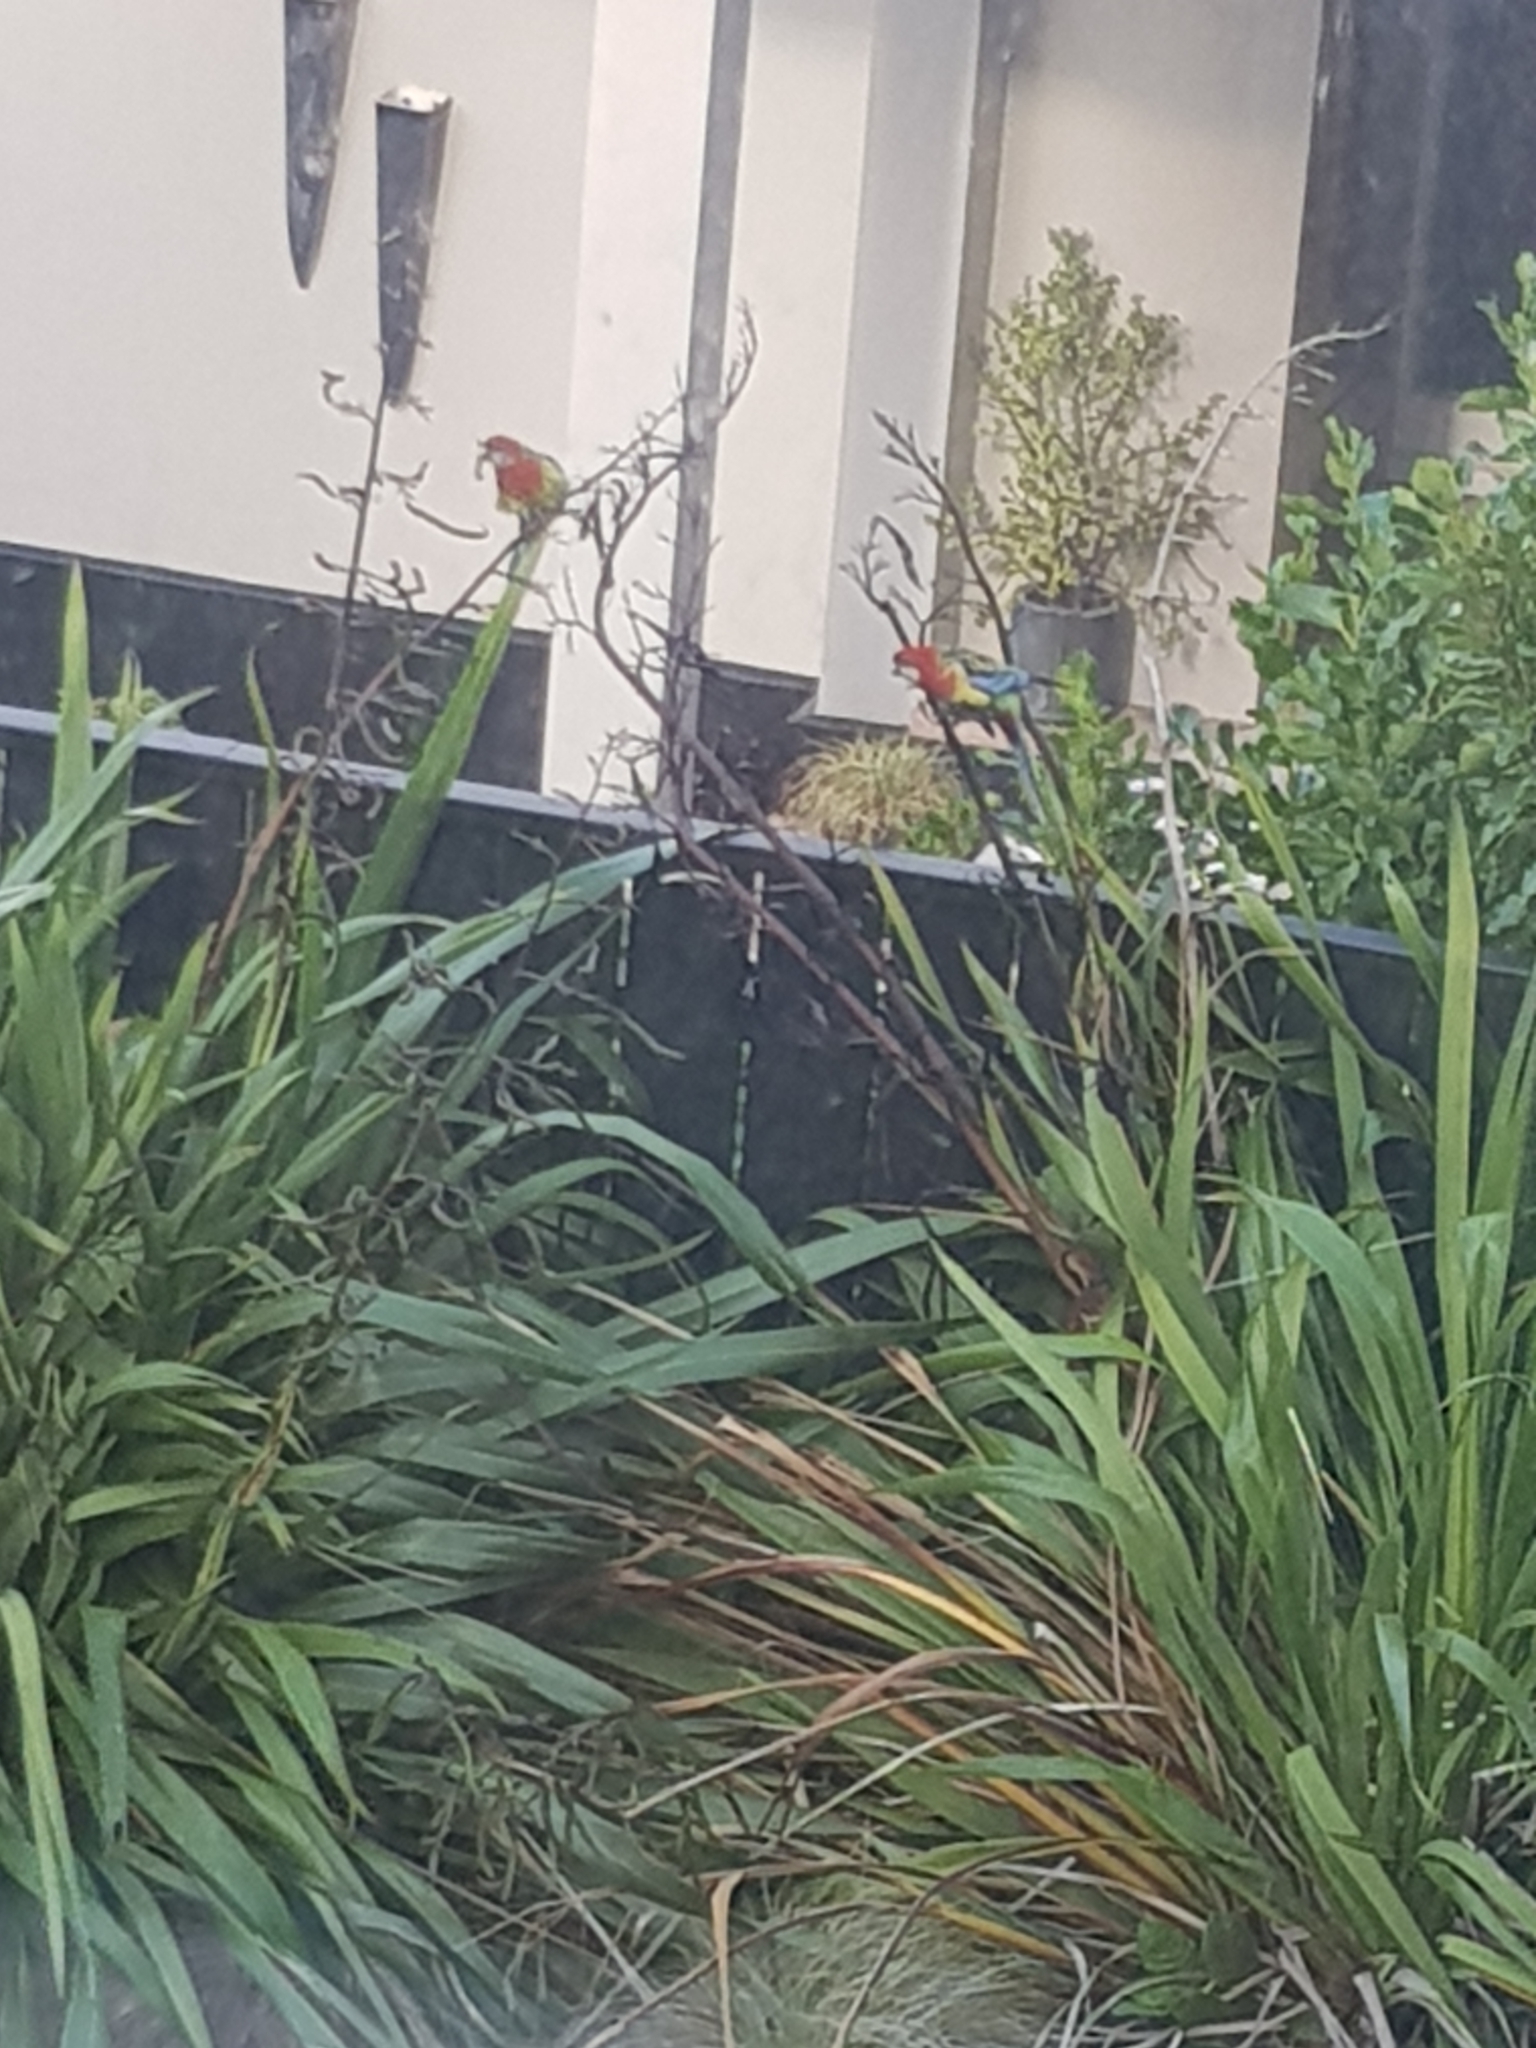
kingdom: Animalia
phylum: Chordata
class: Aves
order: Psittaciformes
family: Psittacidae
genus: Platycercus
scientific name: Platycercus eximius
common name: Eastern rosella
